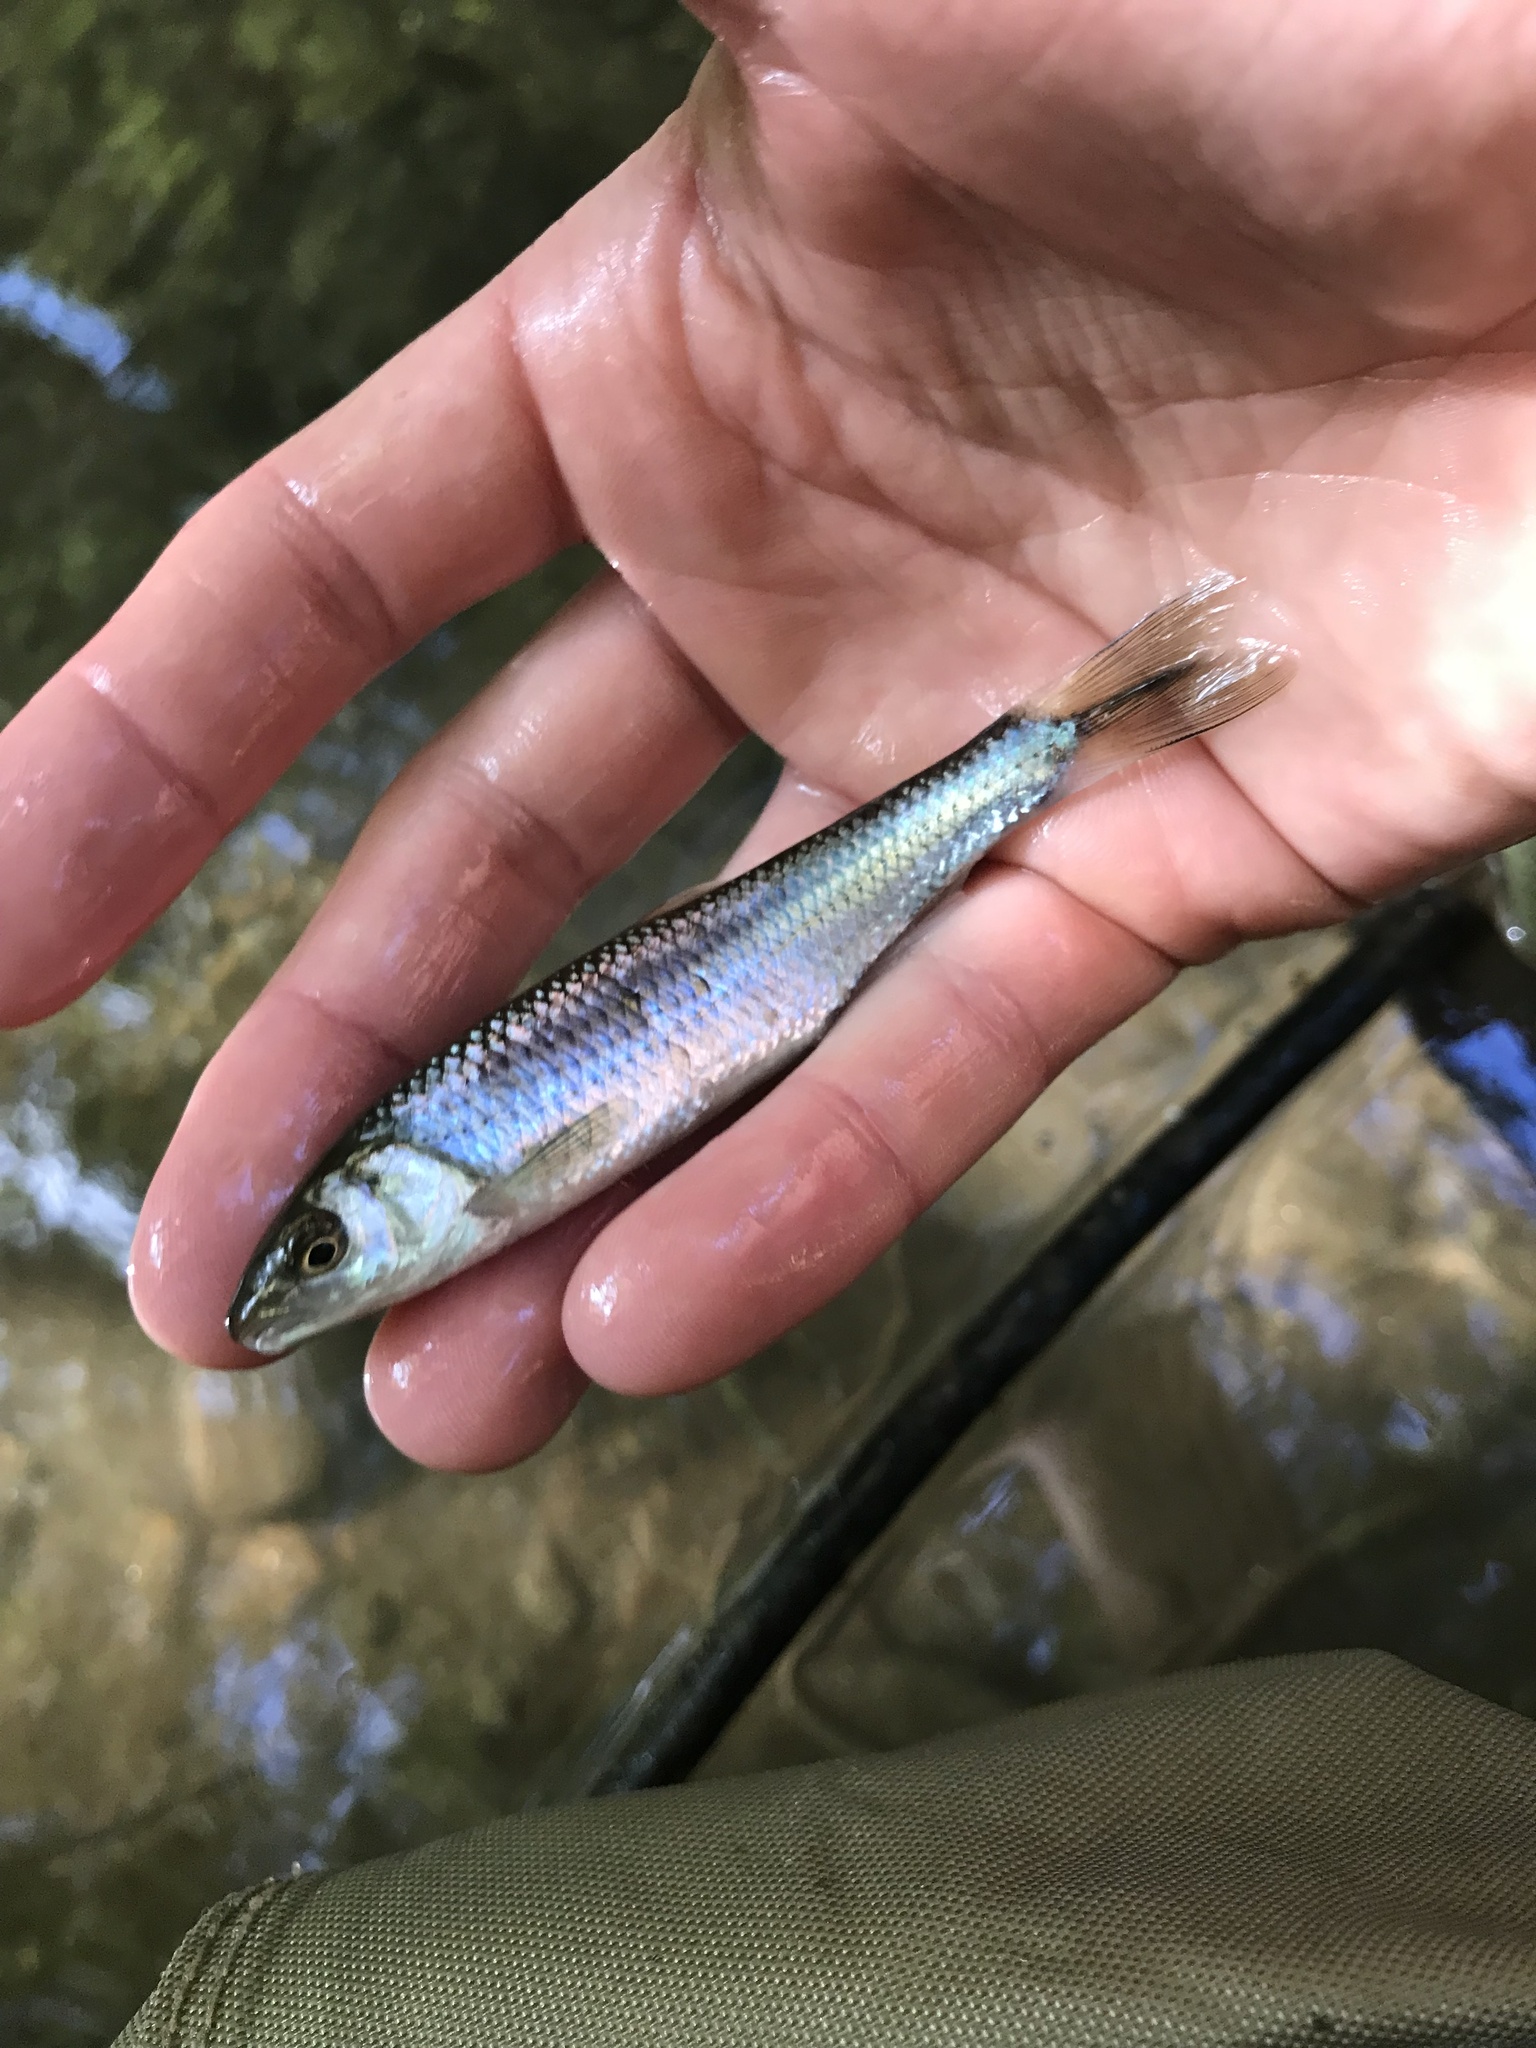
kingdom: Animalia
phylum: Chordata
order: Cypriniformes
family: Cyprinidae
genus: Cyprinella
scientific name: Cyprinella galactura
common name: Whitetail shiner
